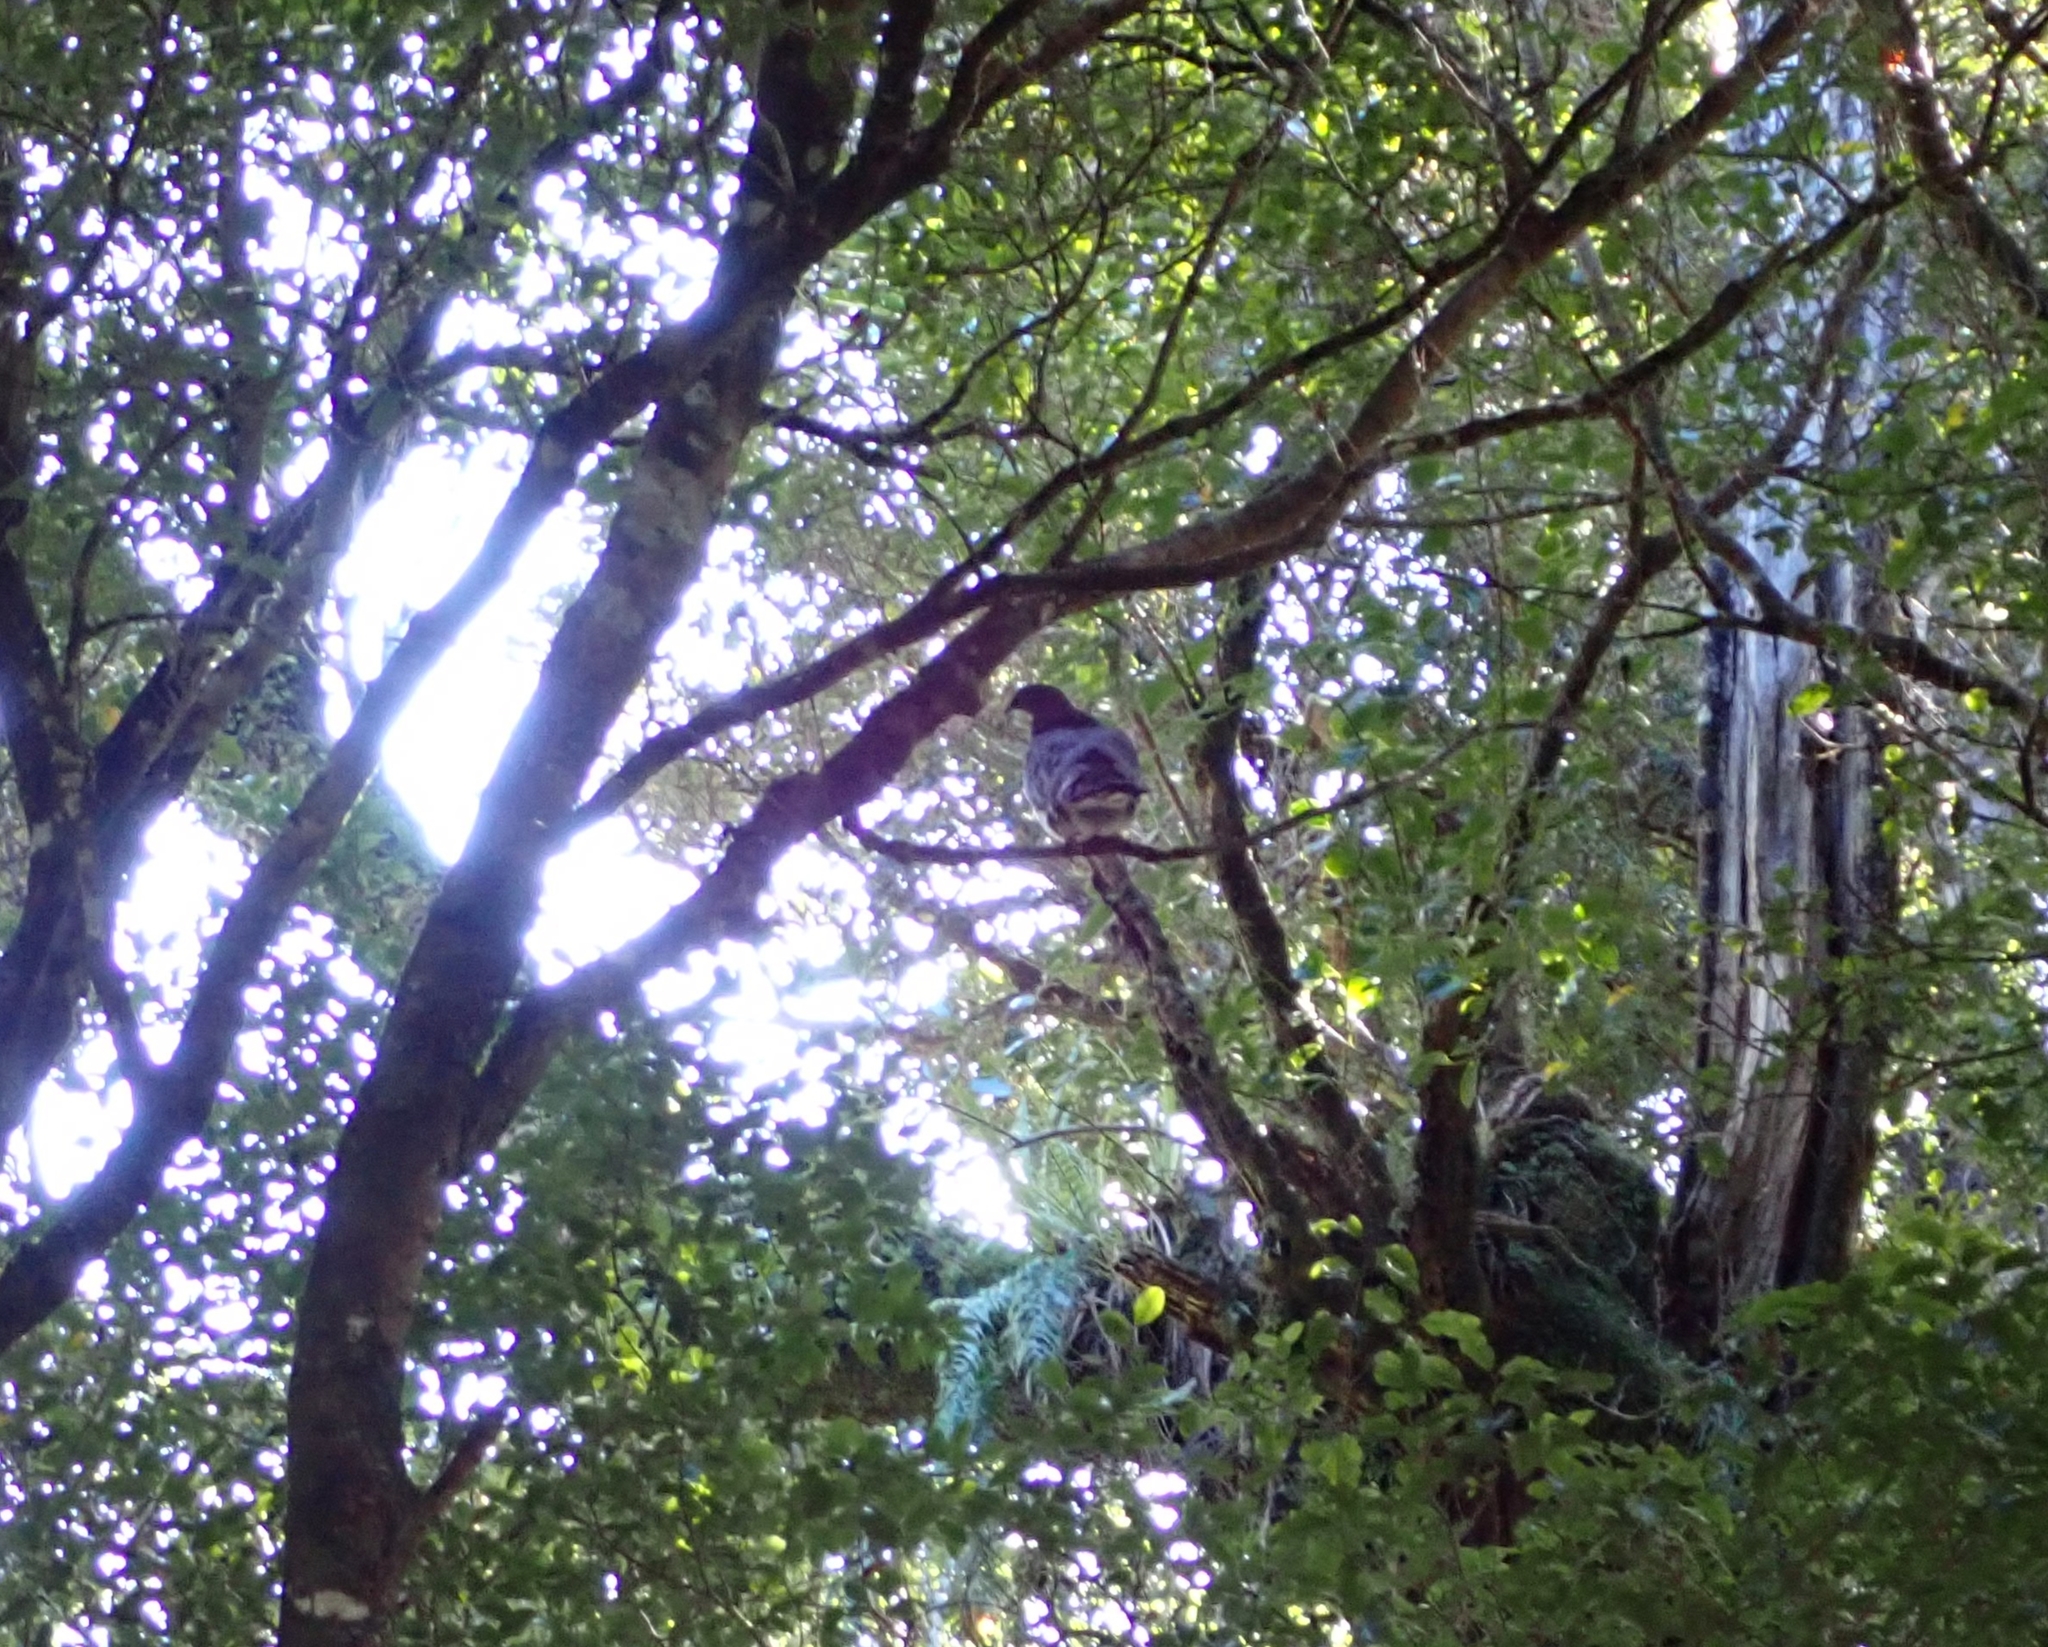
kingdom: Animalia
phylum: Chordata
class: Aves
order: Columbiformes
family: Columbidae
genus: Hemiphaga
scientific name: Hemiphaga novaeseelandiae
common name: New zealand pigeon
